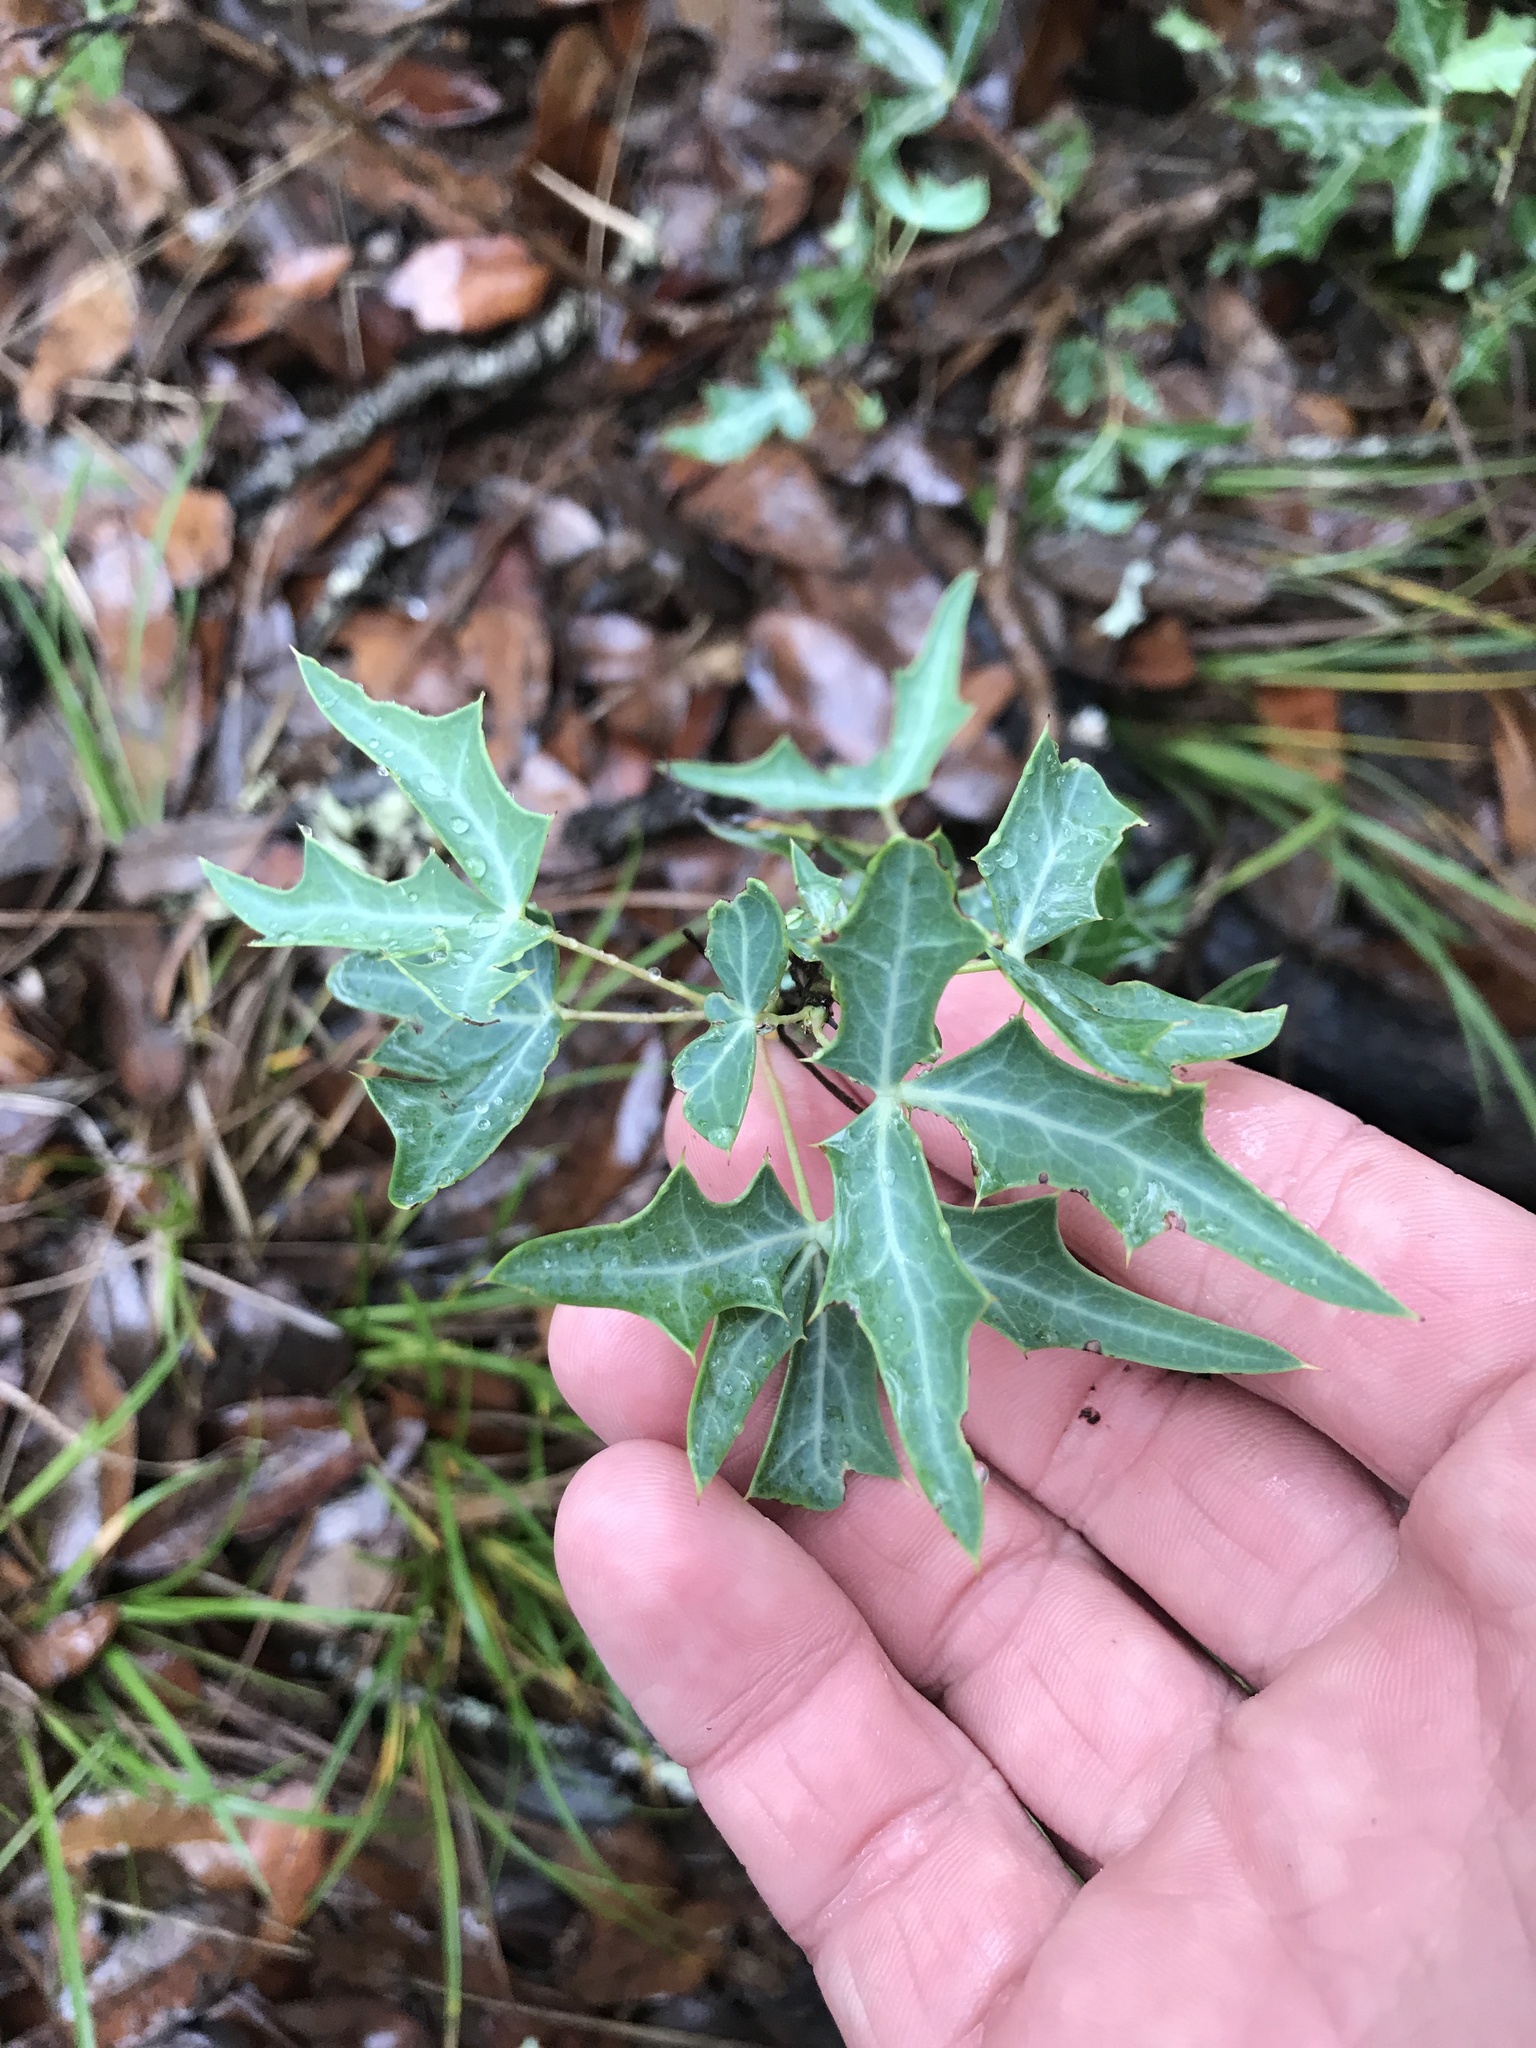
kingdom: Plantae
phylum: Tracheophyta
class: Magnoliopsida
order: Ranunculales
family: Berberidaceae
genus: Alloberberis
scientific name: Alloberberis trifoliolata
